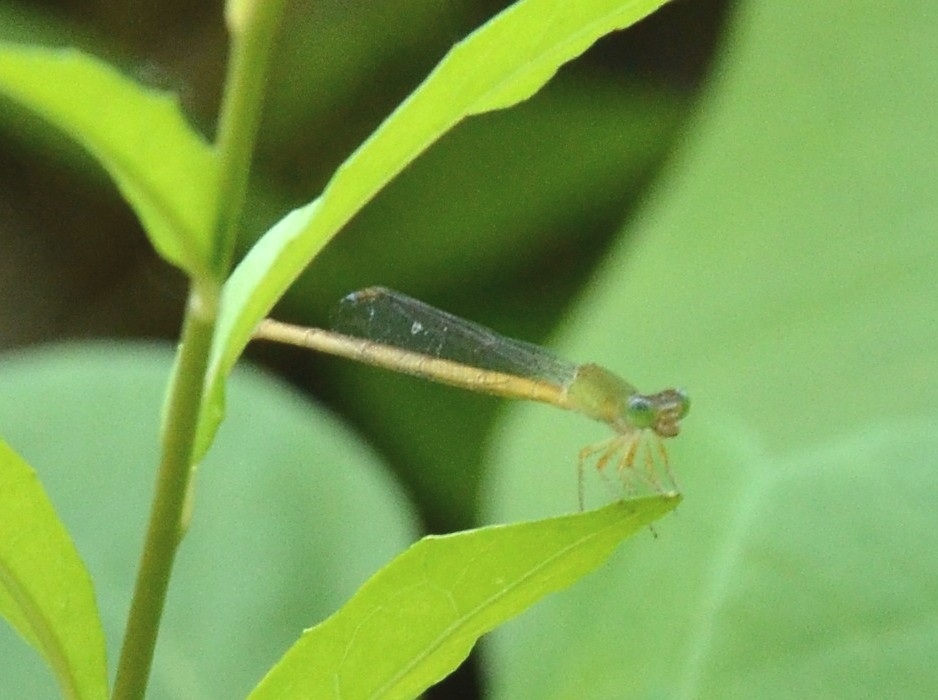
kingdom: Animalia
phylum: Arthropoda
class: Insecta
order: Odonata
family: Coenagrionidae
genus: Ceriagrion
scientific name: Ceriagrion coromandelianum
